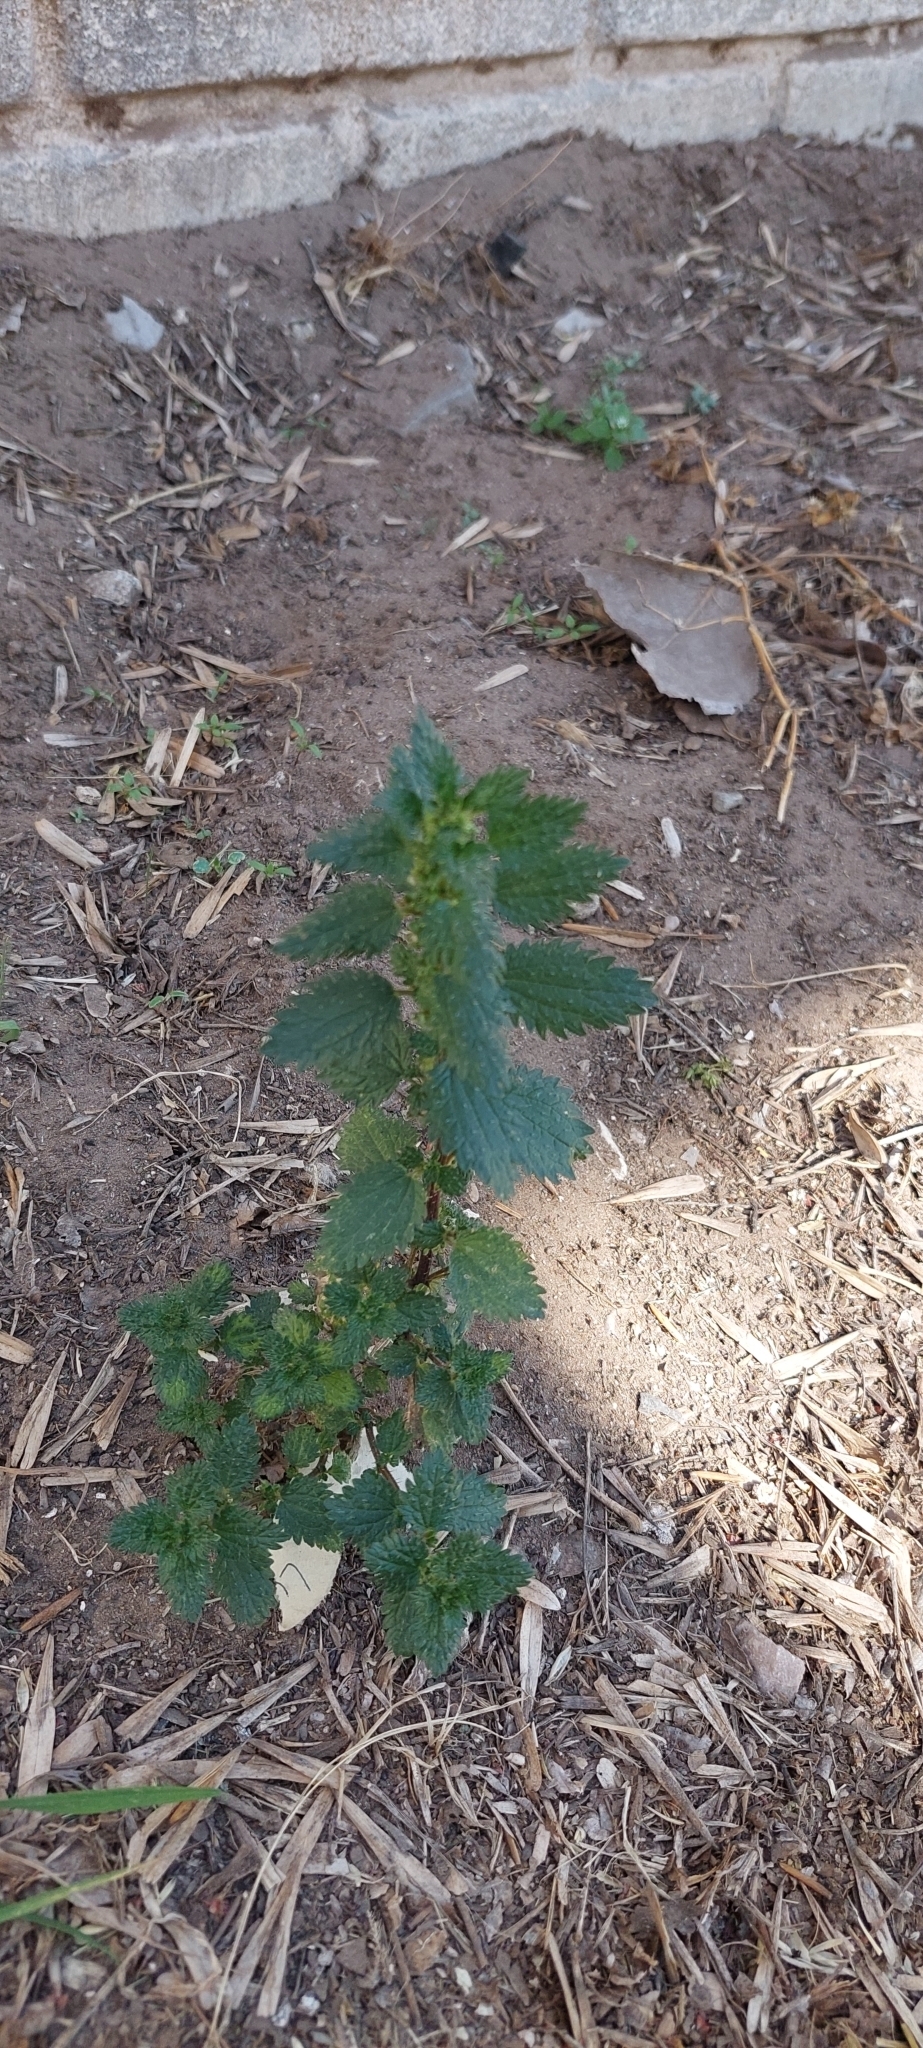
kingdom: Plantae
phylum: Tracheophyta
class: Magnoliopsida
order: Rosales
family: Urticaceae
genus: Urtica
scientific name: Urtica urens
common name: Dwarf nettle
